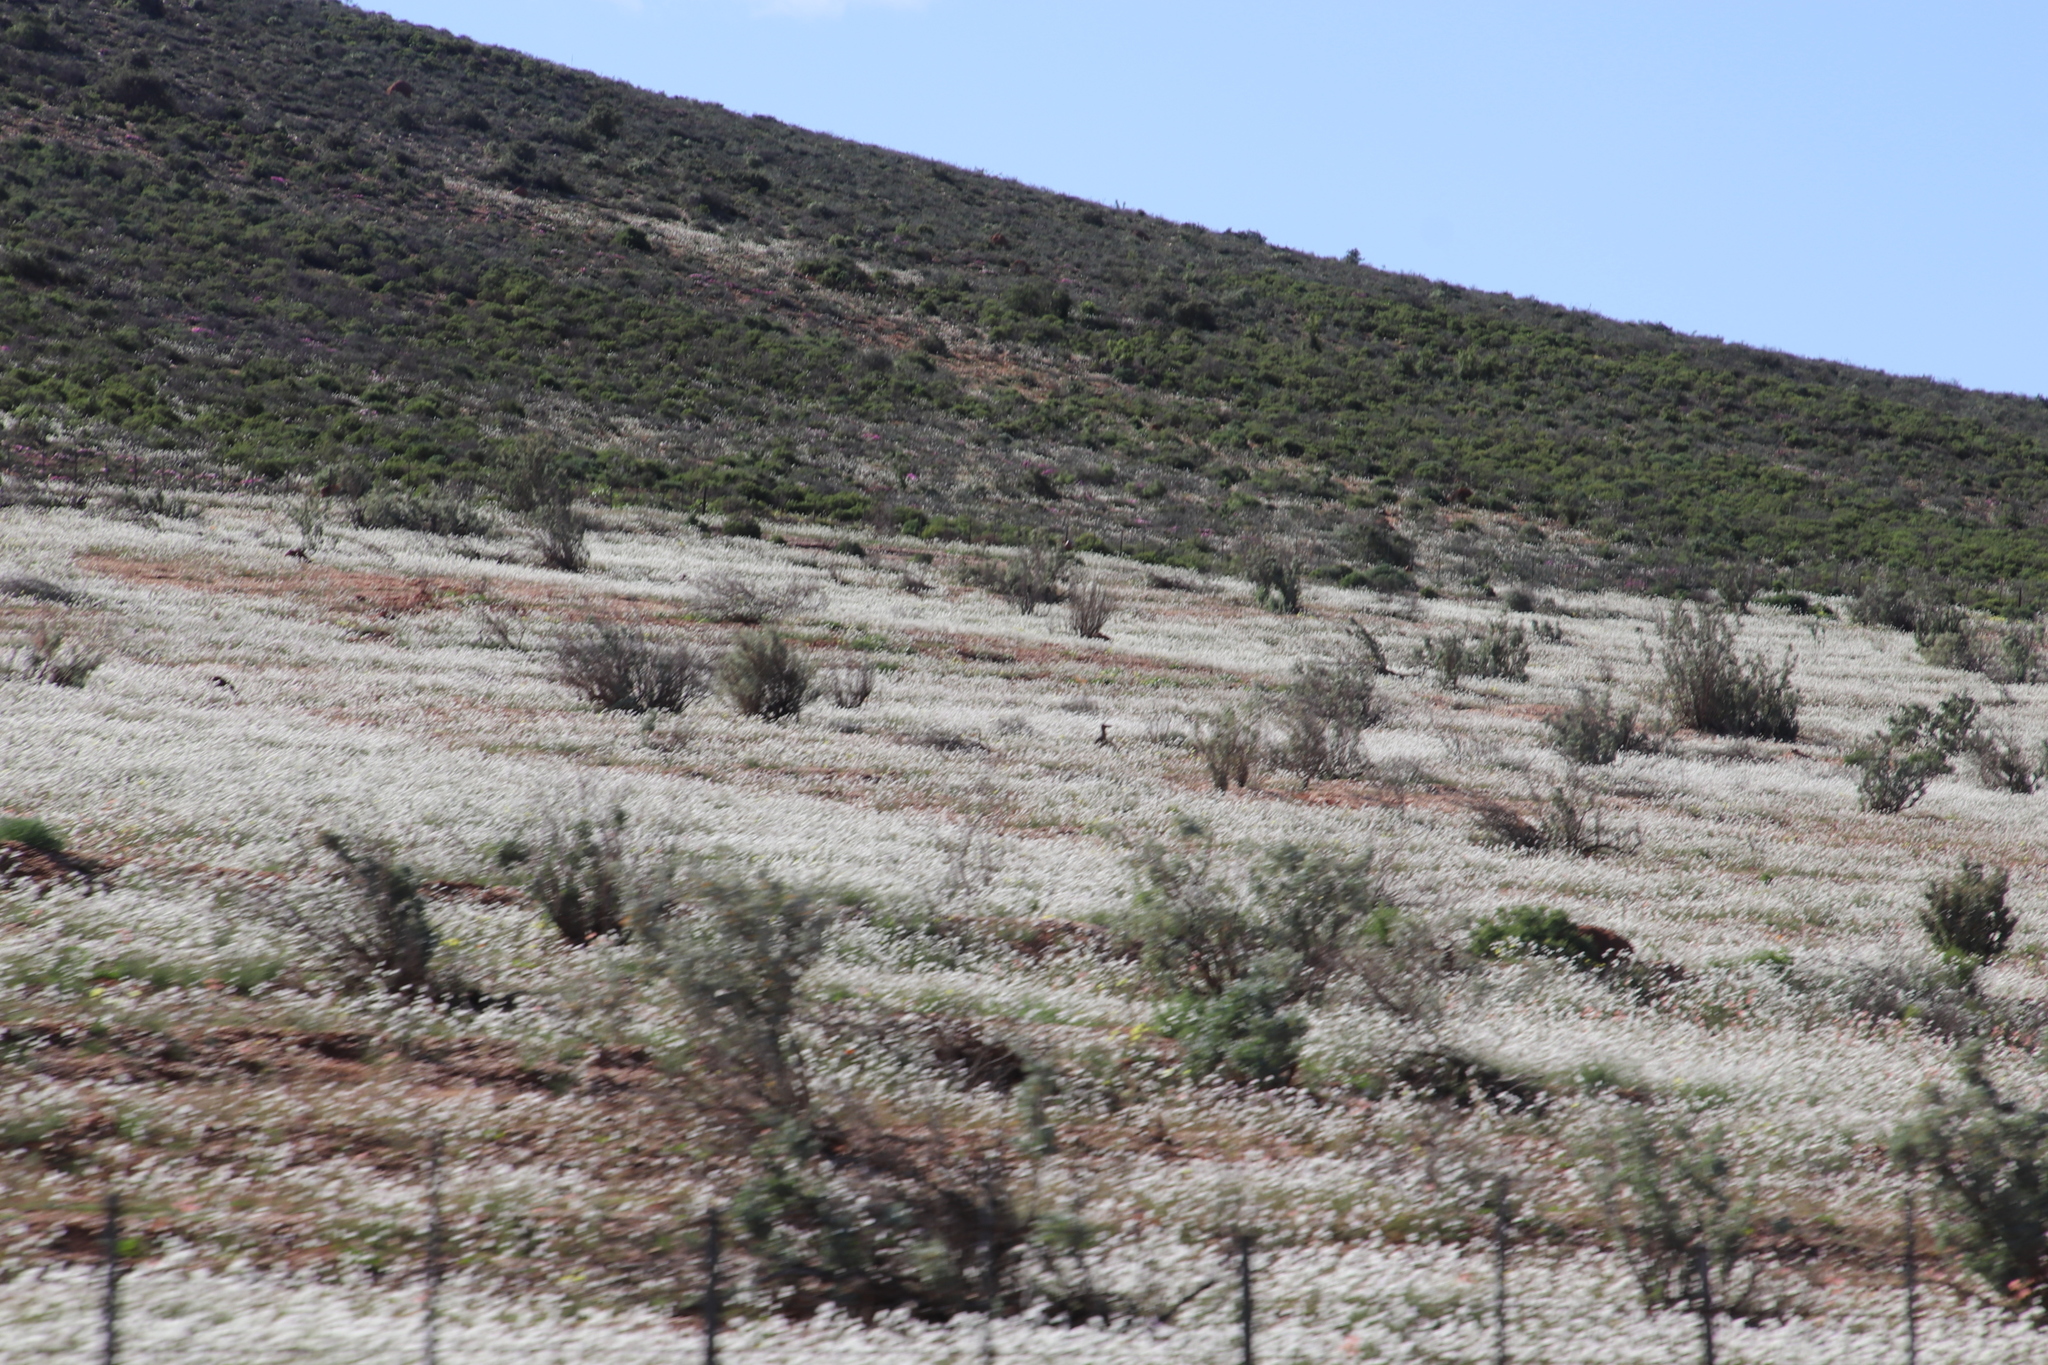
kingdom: Plantae
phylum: Tracheophyta
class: Magnoliopsida
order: Brassicales
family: Brassicaceae
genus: Heliophila
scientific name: Heliophila variabilis
